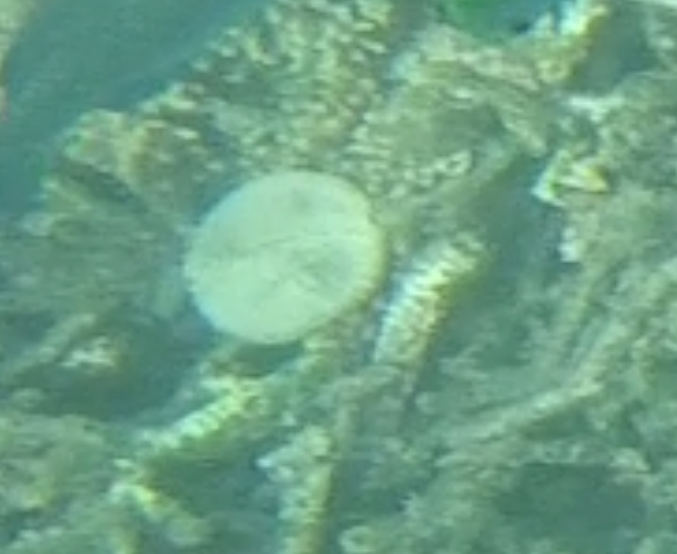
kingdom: Animalia
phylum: Echinodermata
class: Echinoidea
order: Echinolampadacea
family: Laganidae
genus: Jacksonaster
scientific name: Jacksonaster depressus
